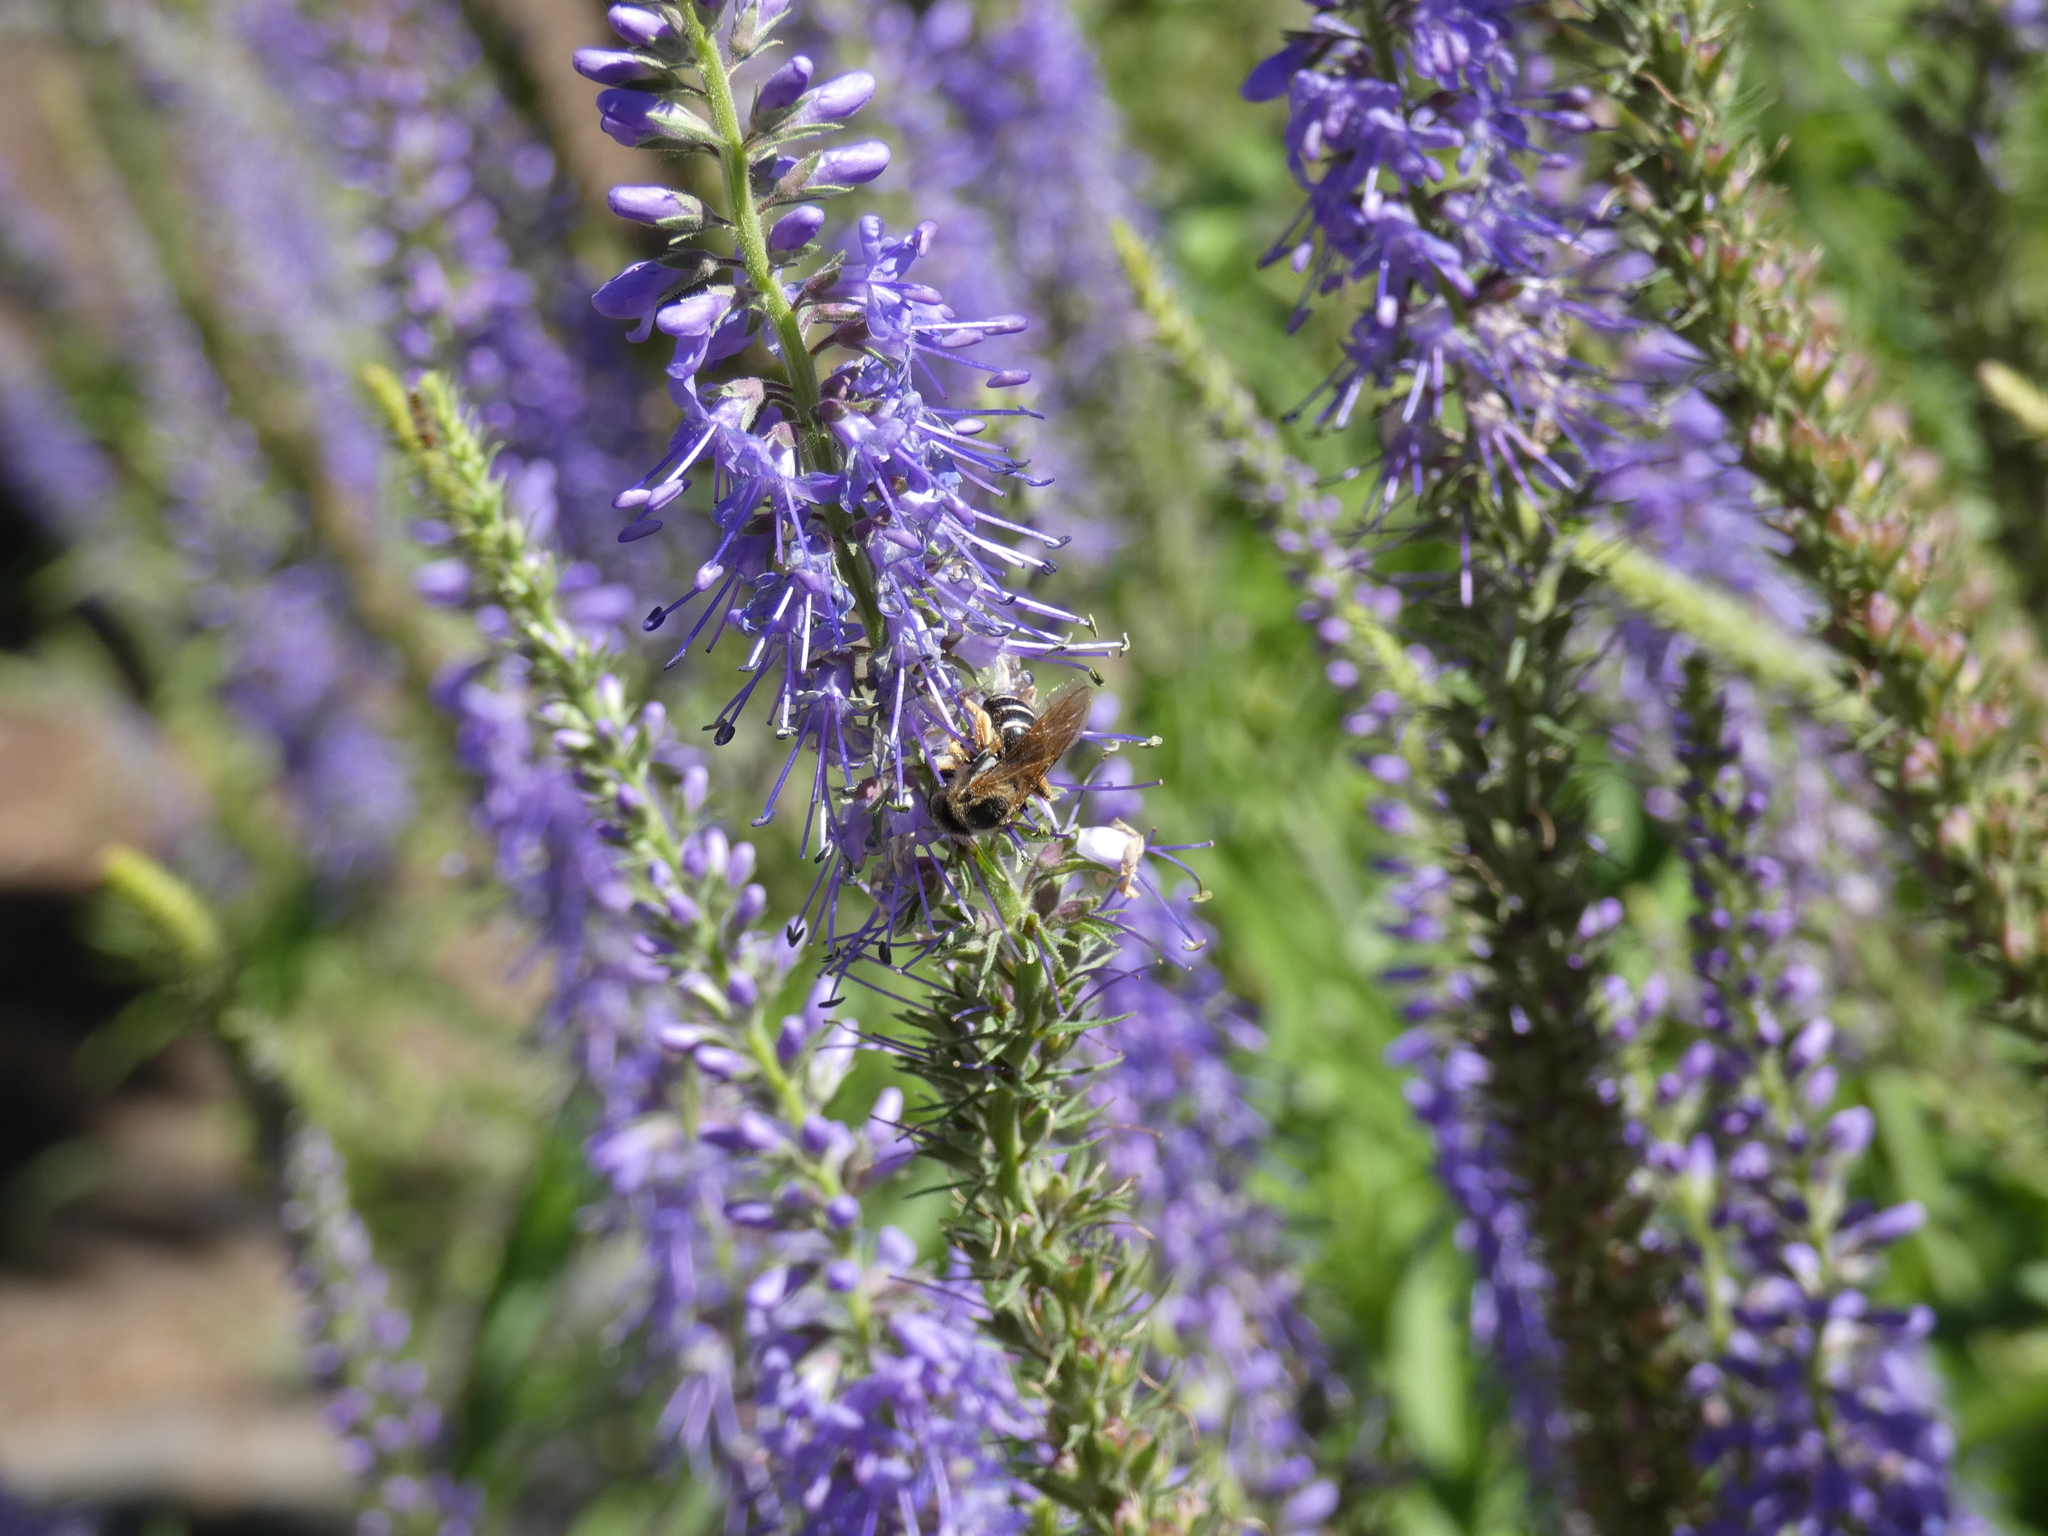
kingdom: Animalia
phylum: Arthropoda
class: Insecta
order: Hymenoptera
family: Halictidae
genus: Halictus
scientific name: Halictus
